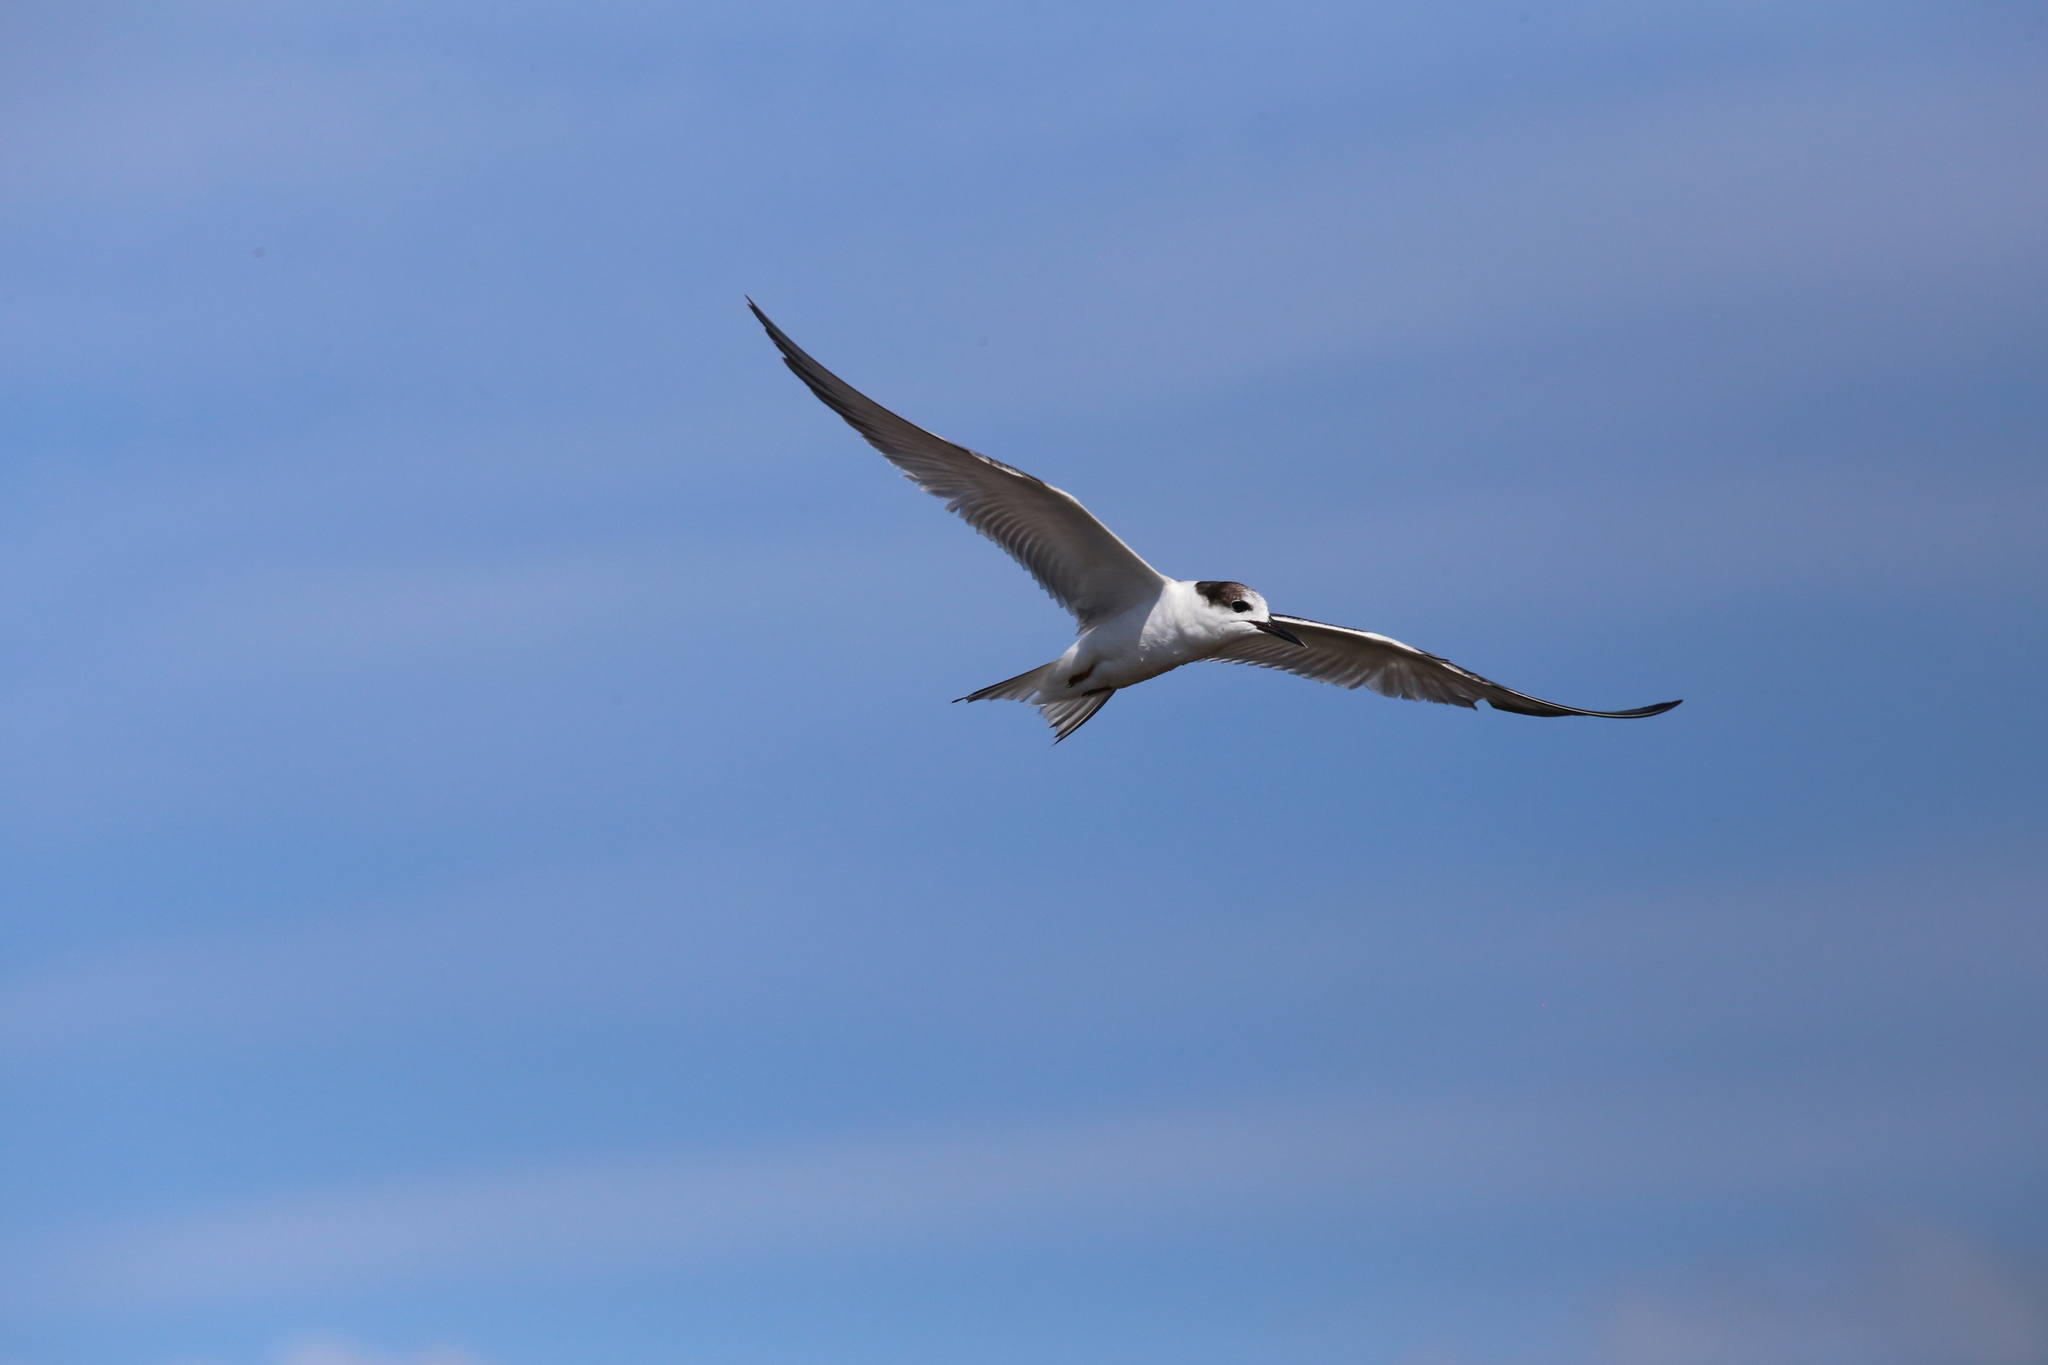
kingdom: Animalia
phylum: Chordata
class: Aves
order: Charadriiformes
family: Laridae
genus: Sterna
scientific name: Sterna hirundo
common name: Common tern
